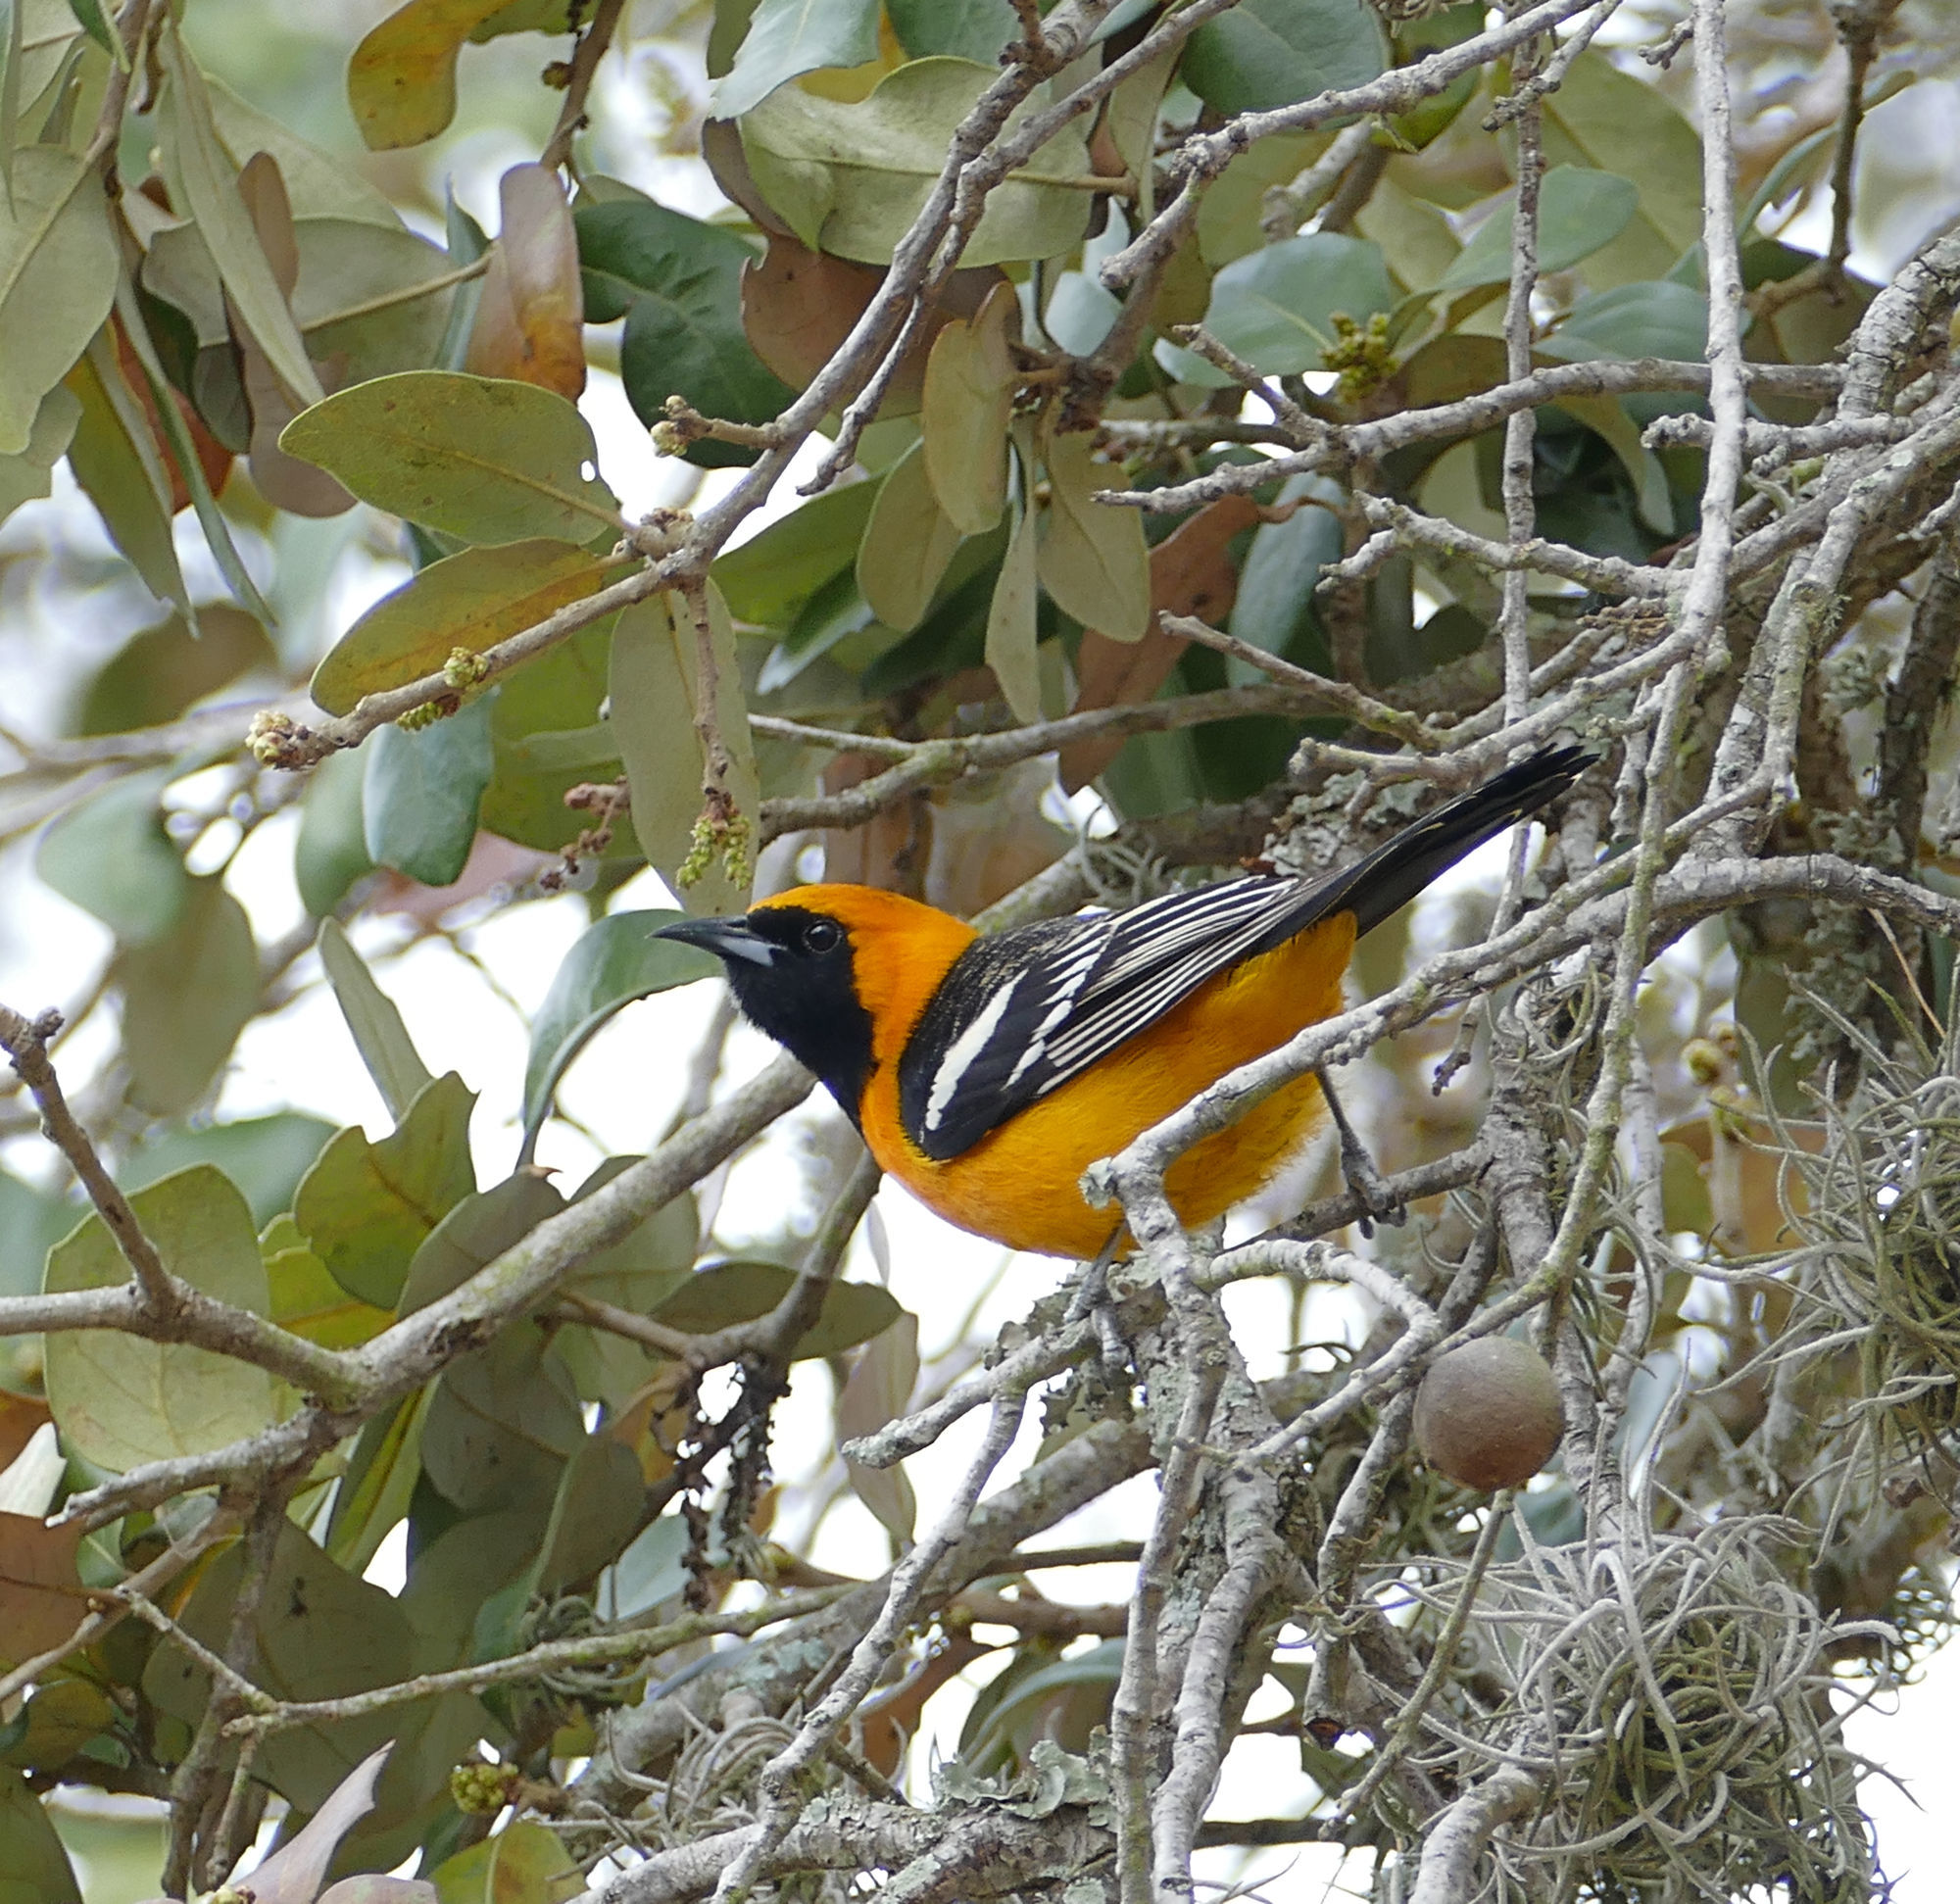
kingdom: Animalia
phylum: Chordata
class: Aves
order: Passeriformes
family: Icteridae
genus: Icterus
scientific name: Icterus cucullatus
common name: Hooded oriole
